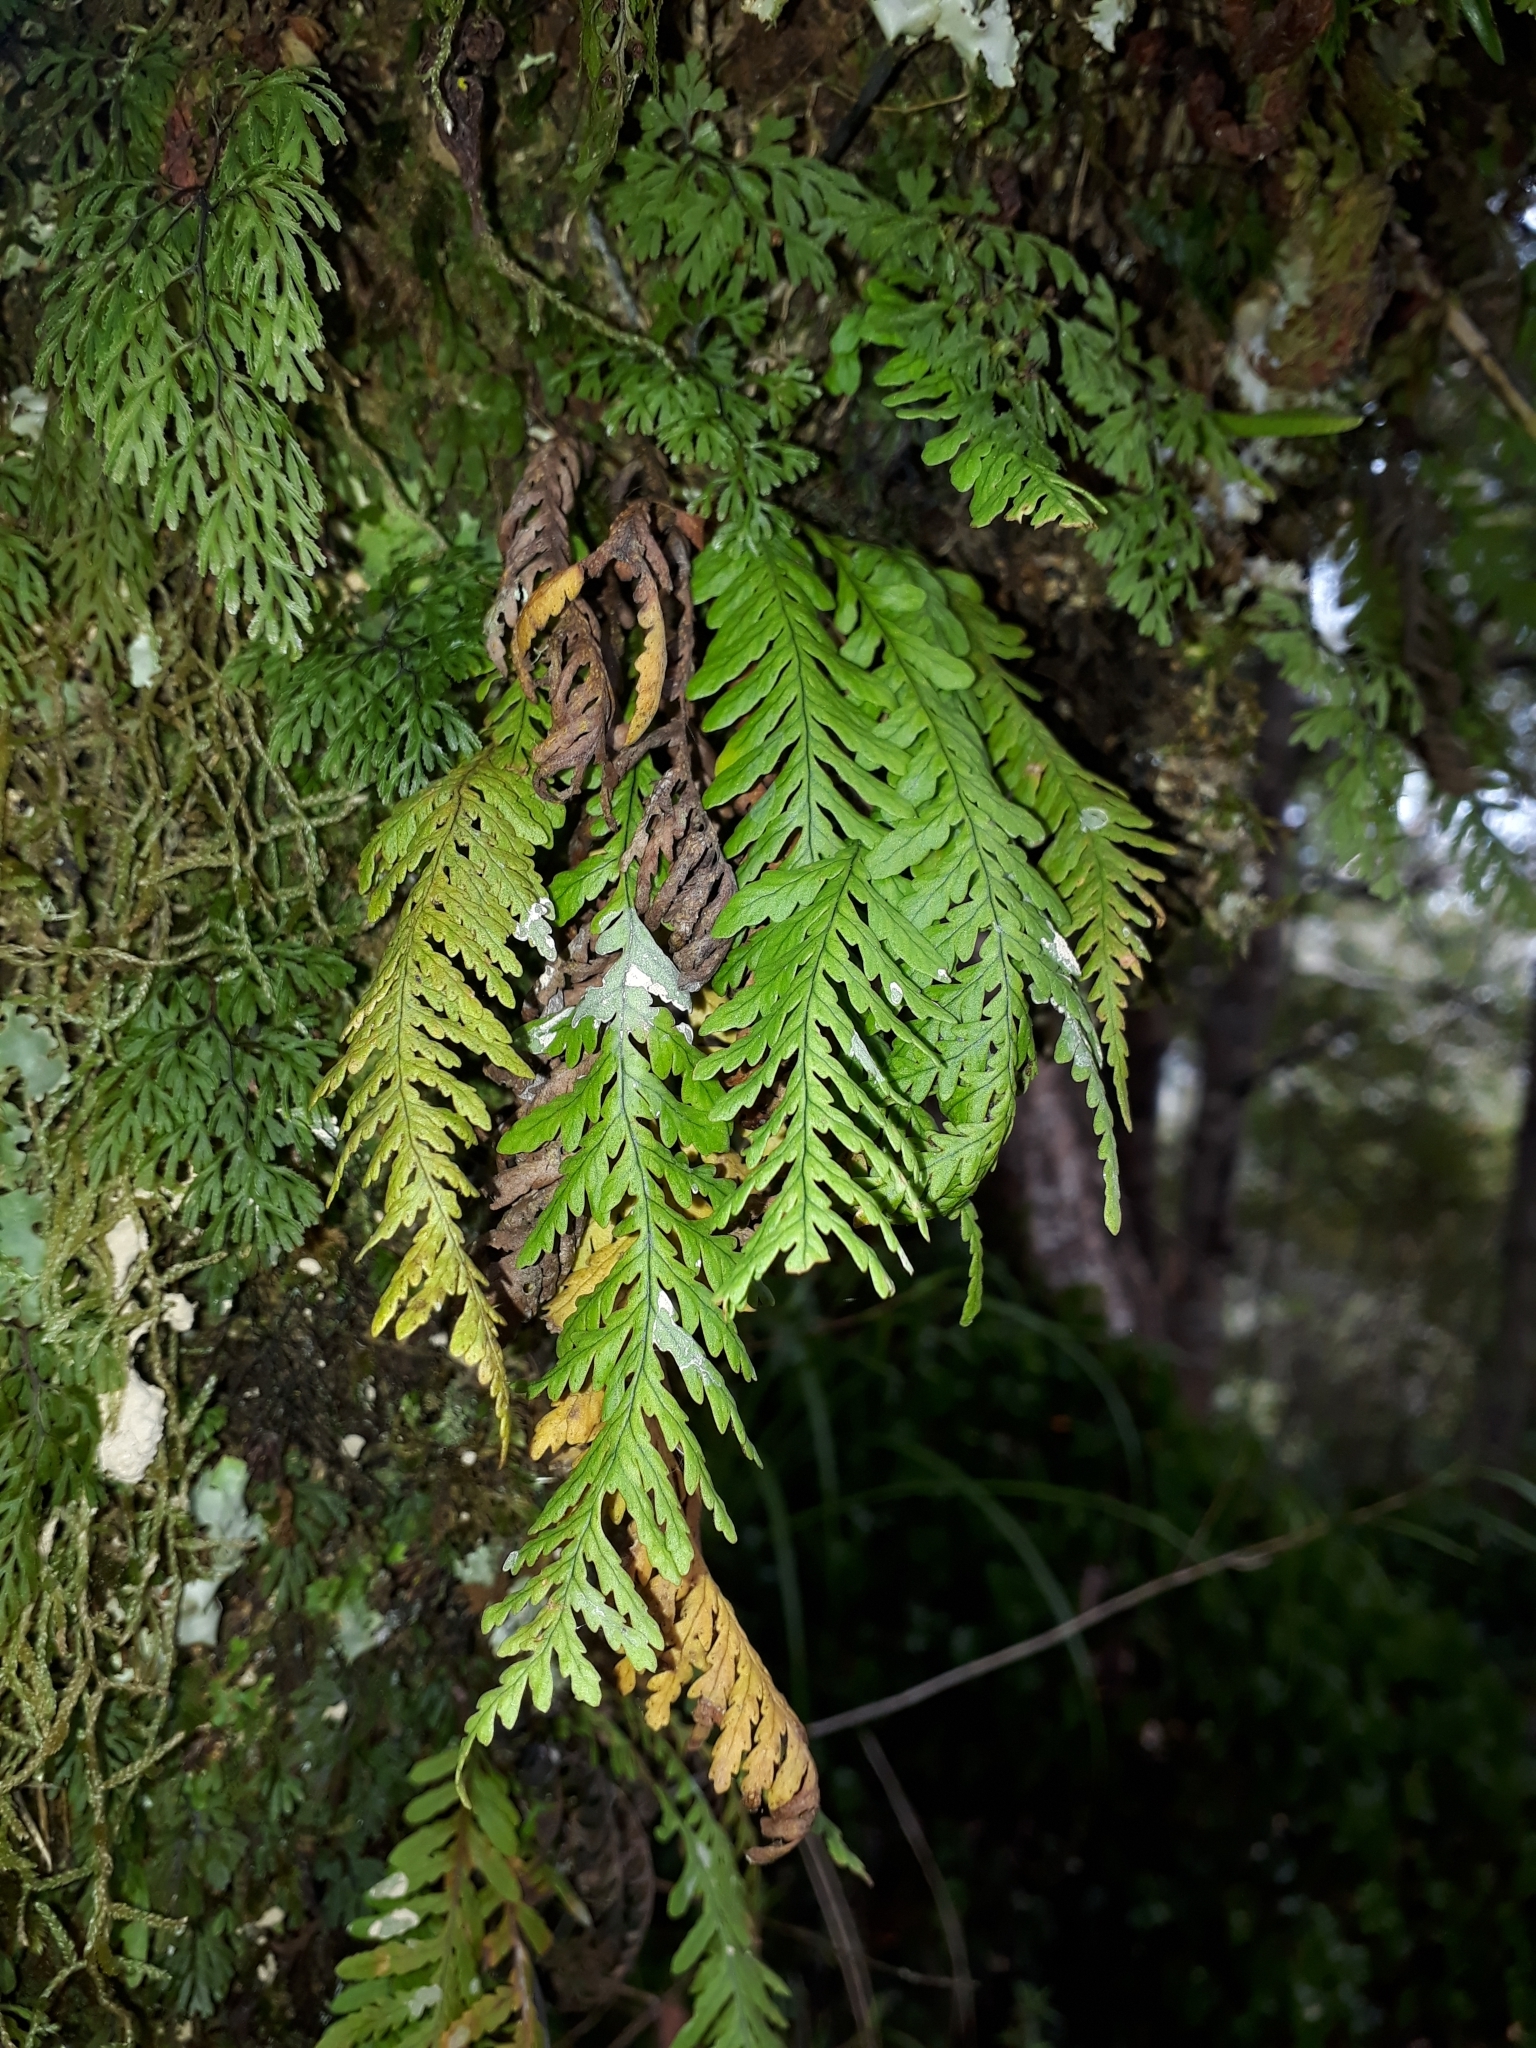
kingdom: Plantae
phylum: Tracheophyta
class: Polypodiopsida
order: Polypodiales
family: Polypodiaceae
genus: Notogrammitis
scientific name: Notogrammitis heterophylla
